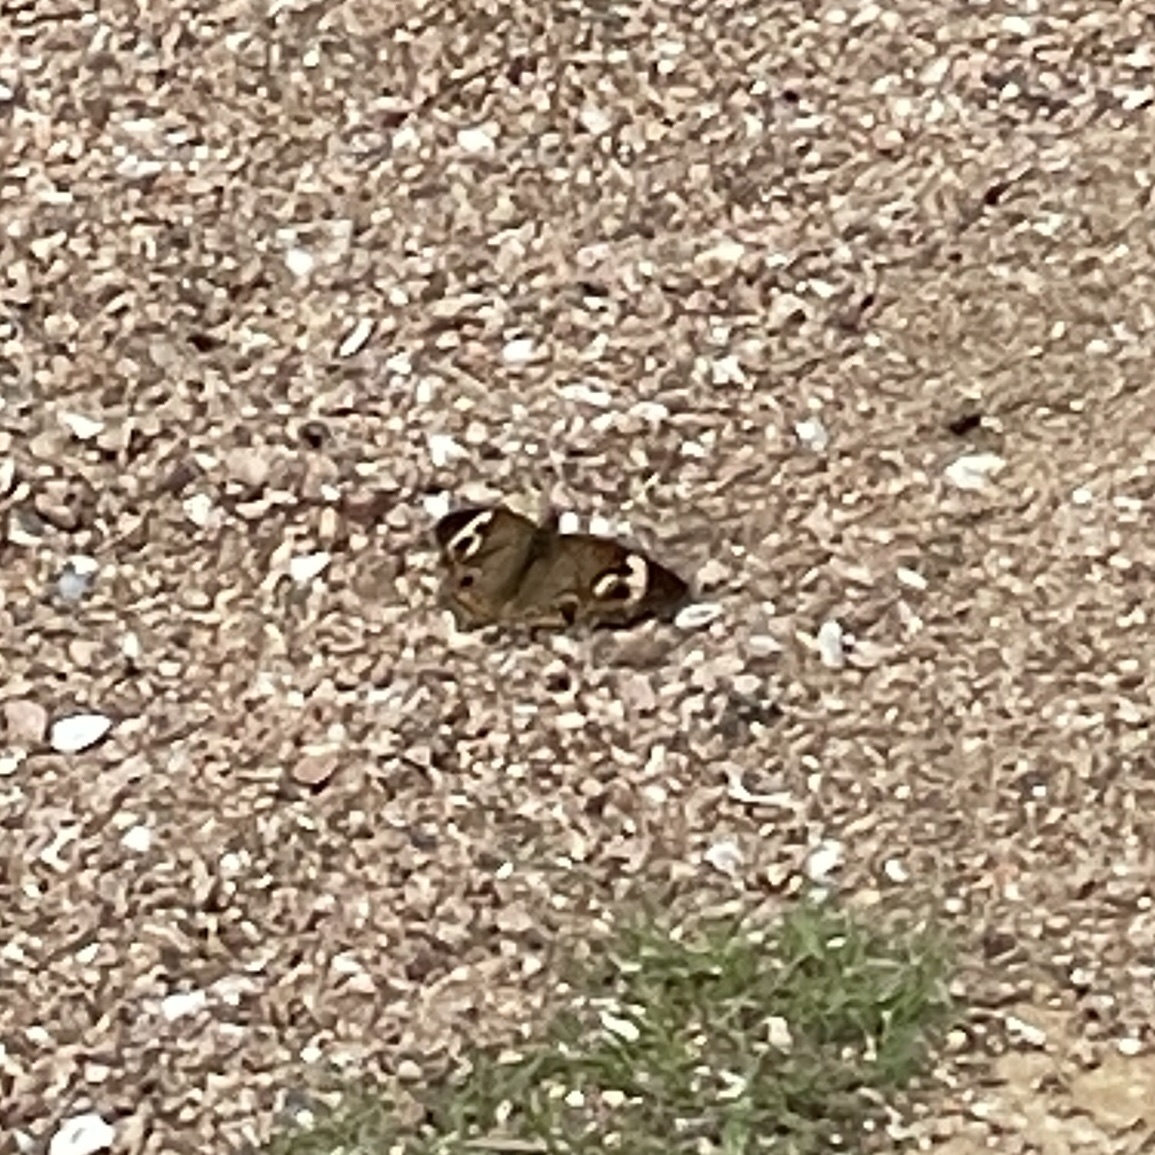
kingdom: Animalia
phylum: Arthropoda
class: Insecta
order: Lepidoptera
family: Nymphalidae
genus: Junonia
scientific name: Junonia coenia
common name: Common buckeye
